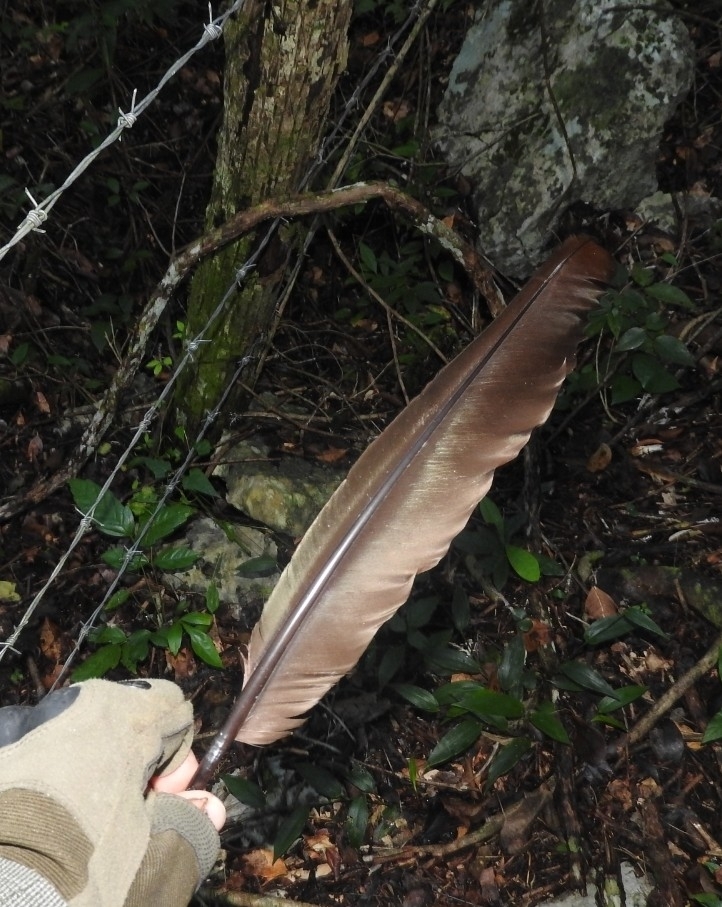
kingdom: Animalia
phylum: Chordata
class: Aves
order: Galliformes
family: Cracidae
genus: Penelope
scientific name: Penelope purpurascens
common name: Crested guan
